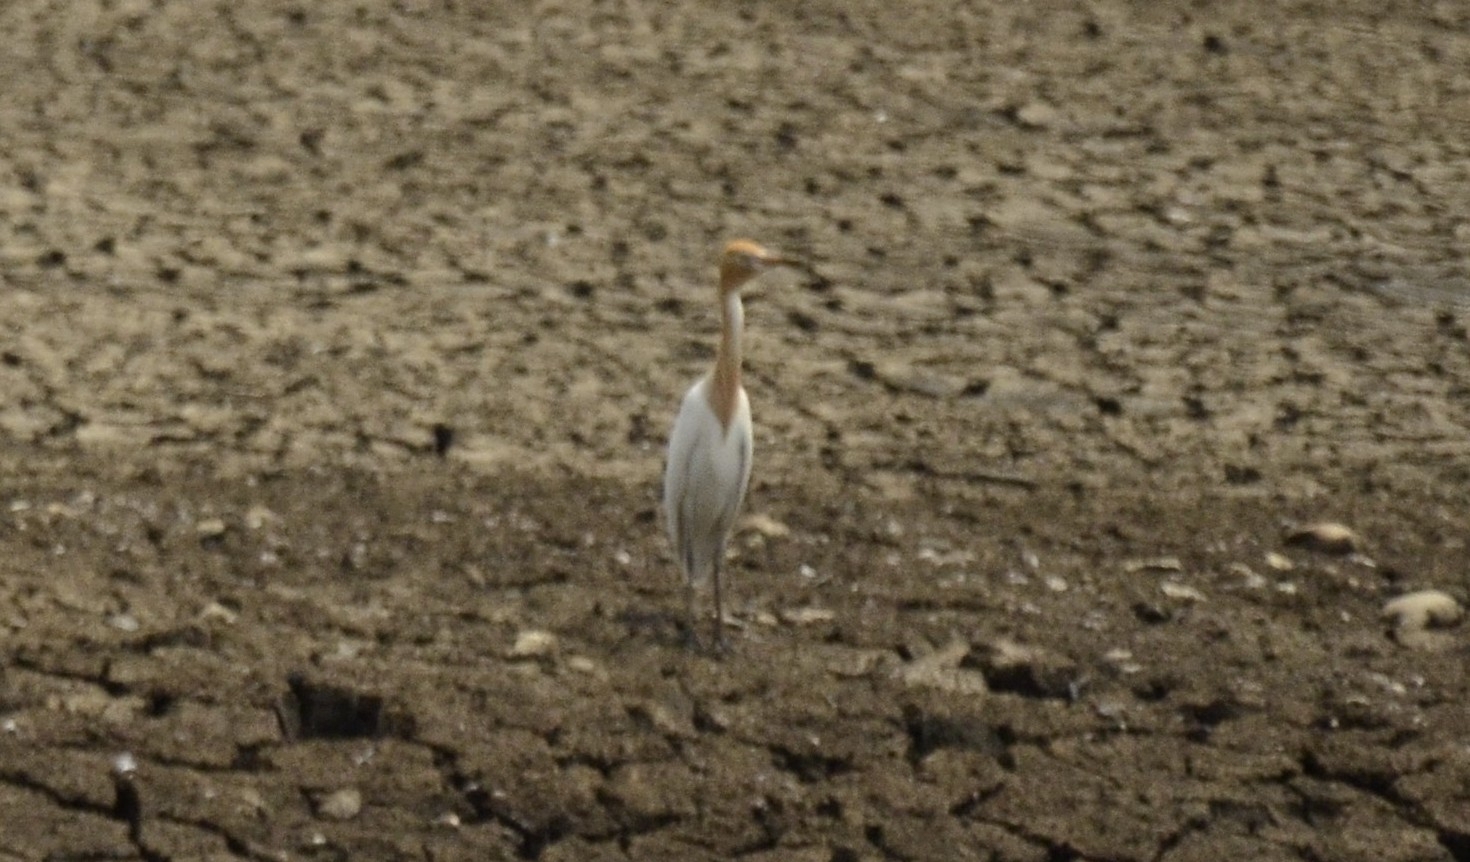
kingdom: Animalia
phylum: Chordata
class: Aves
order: Pelecaniformes
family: Ardeidae
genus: Bubulcus
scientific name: Bubulcus coromandus
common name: Eastern cattle egret
